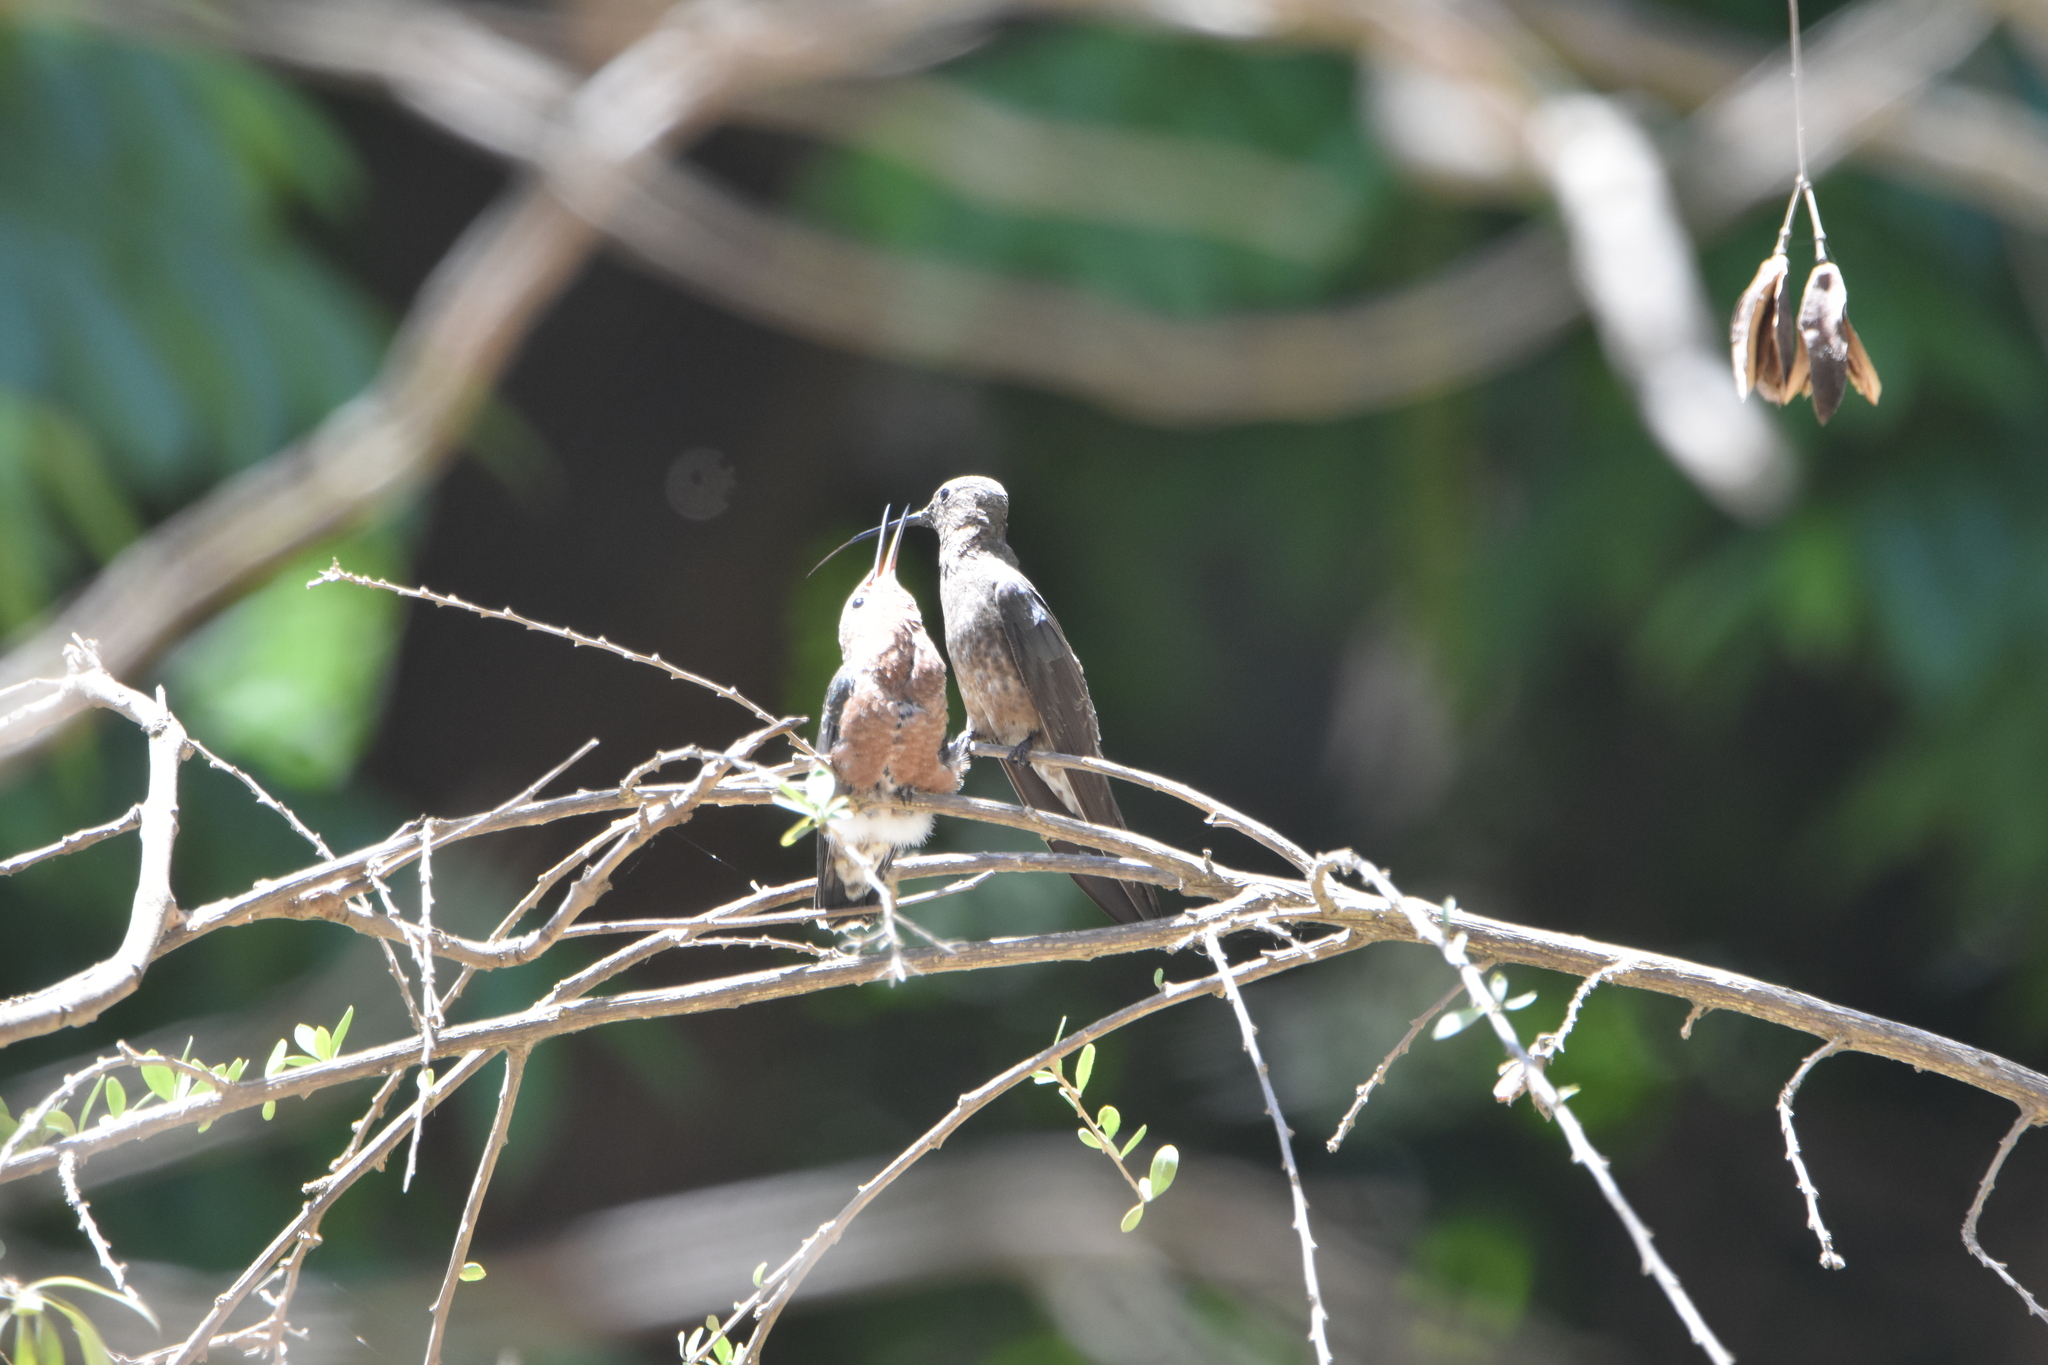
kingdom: Animalia
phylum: Chordata
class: Aves
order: Apodiformes
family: Trochilidae
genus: Patagona
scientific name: Patagona gigas
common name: Giant hummingbird
